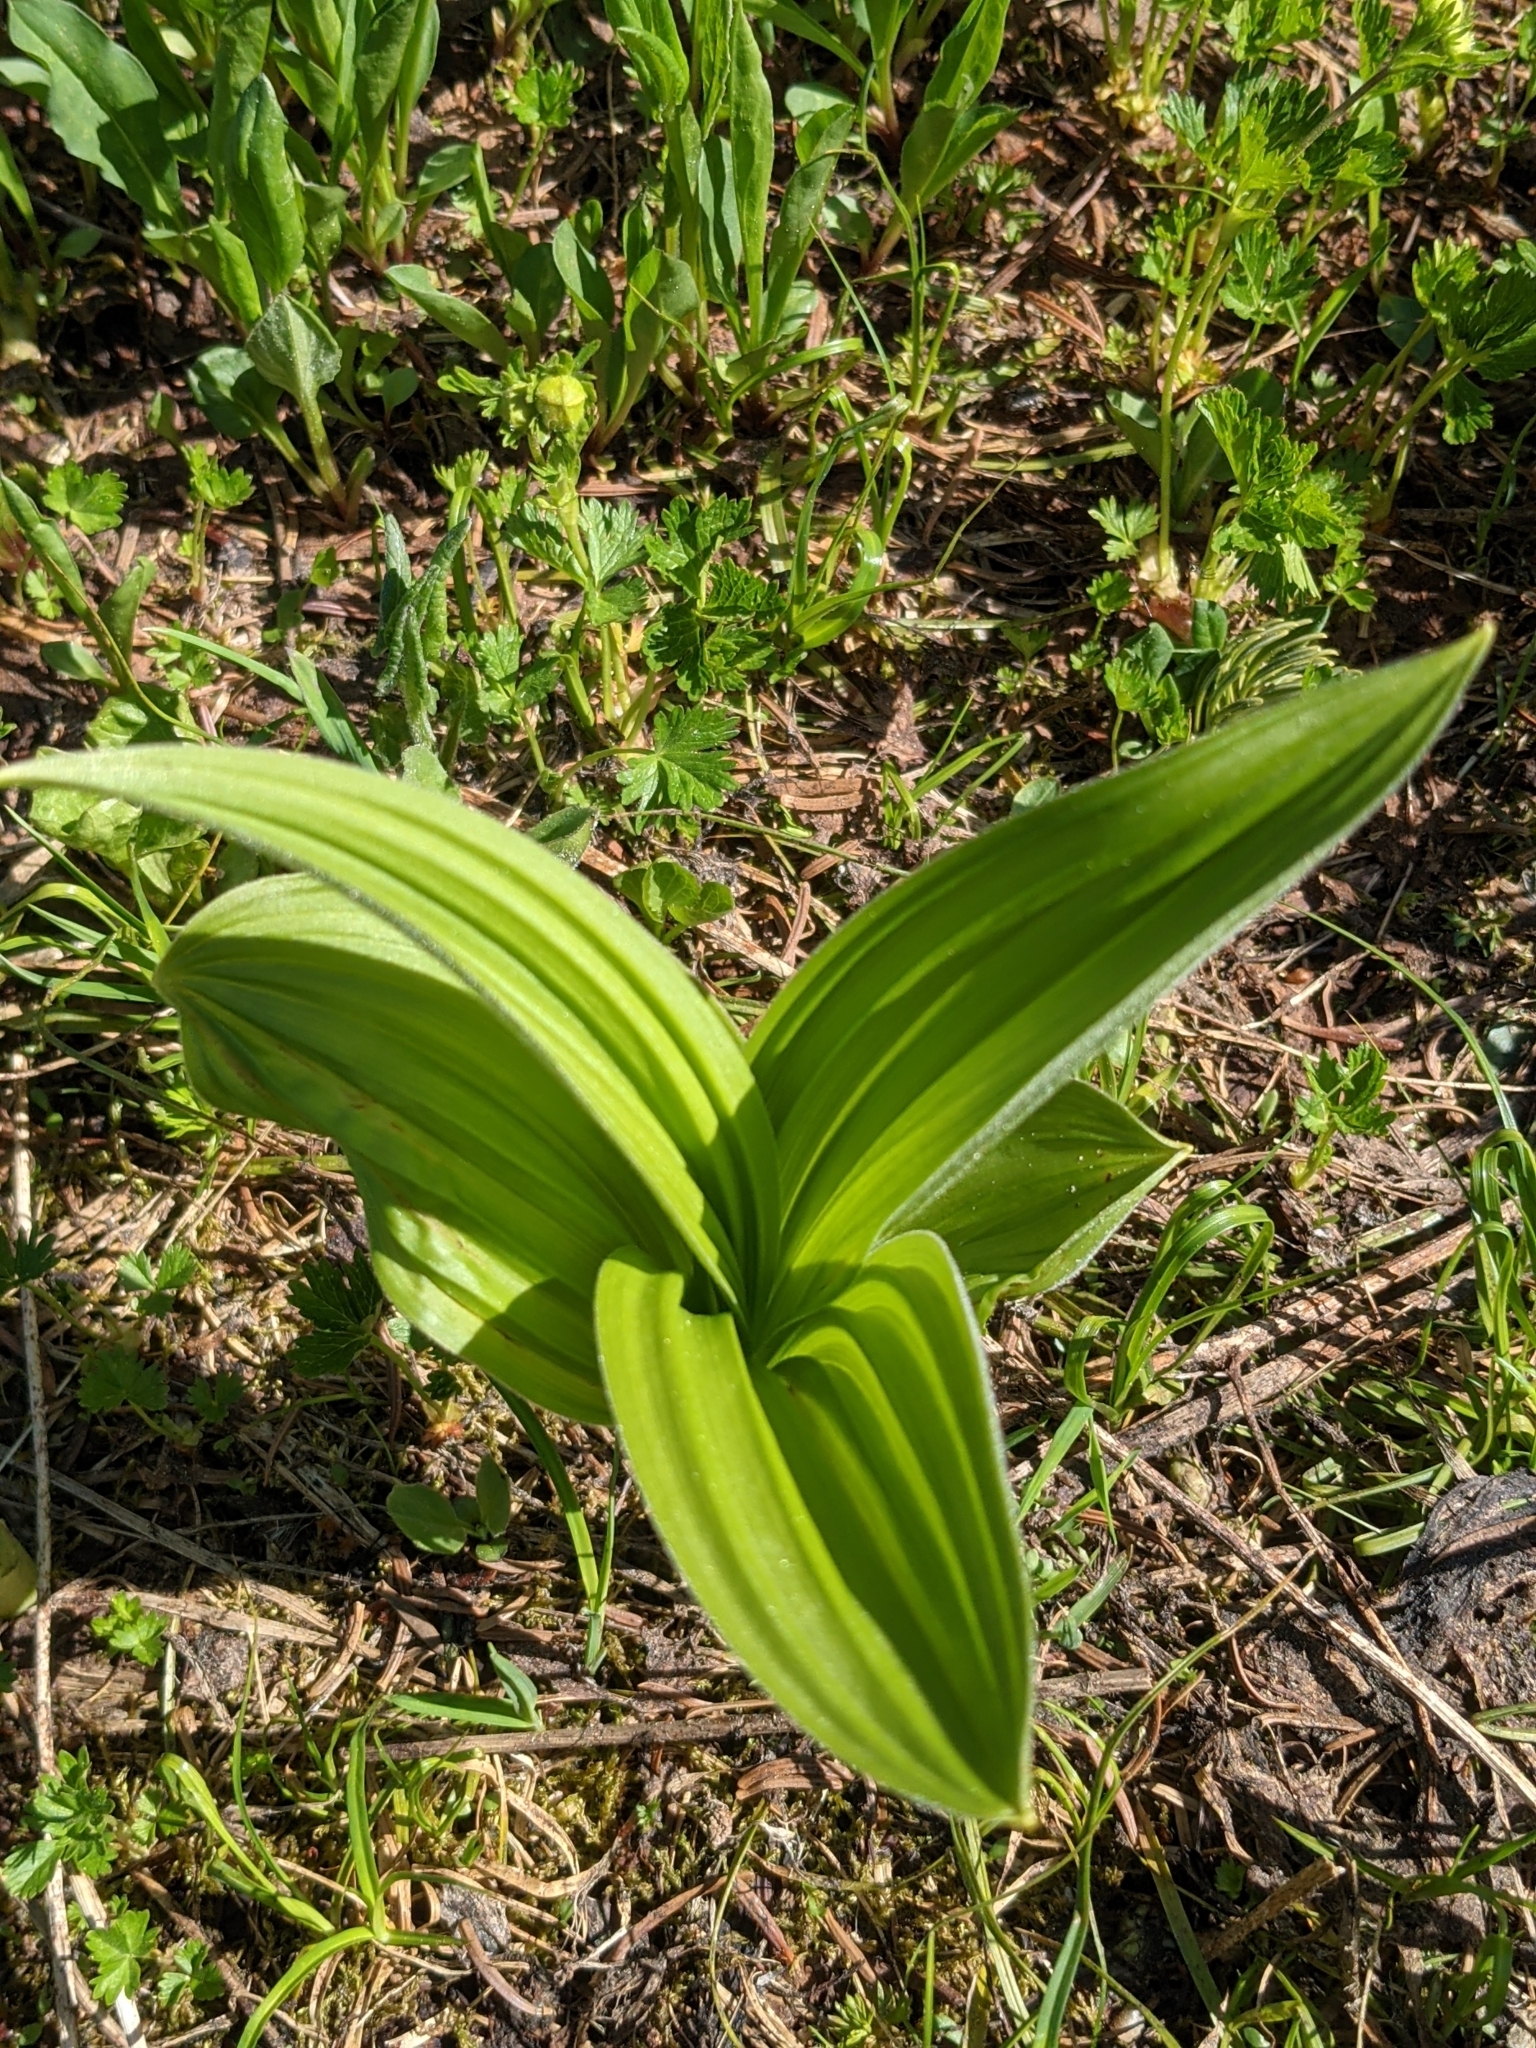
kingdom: Plantae
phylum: Tracheophyta
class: Liliopsida
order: Liliales
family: Melanthiaceae
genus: Veratrum
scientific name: Veratrum viride
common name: American false hellebore
